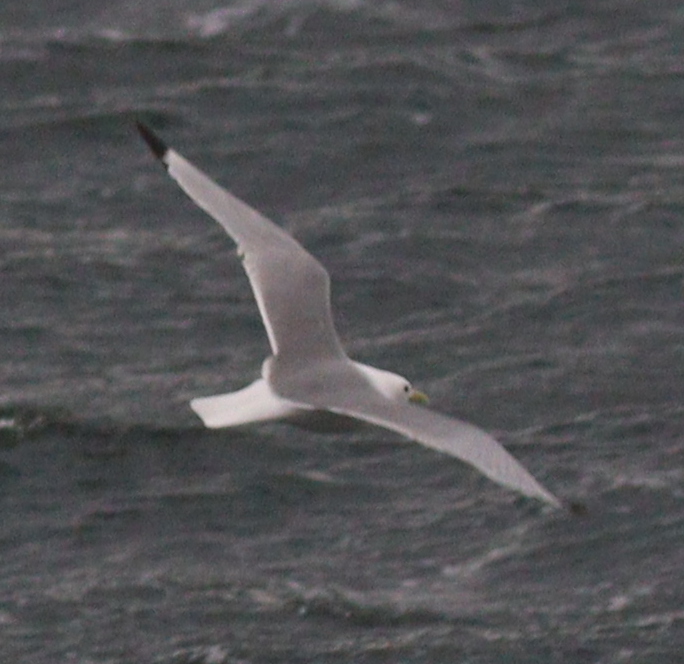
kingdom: Animalia
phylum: Chordata
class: Aves
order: Charadriiformes
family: Laridae
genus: Rissa
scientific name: Rissa tridactyla
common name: Black-legged kittiwake
